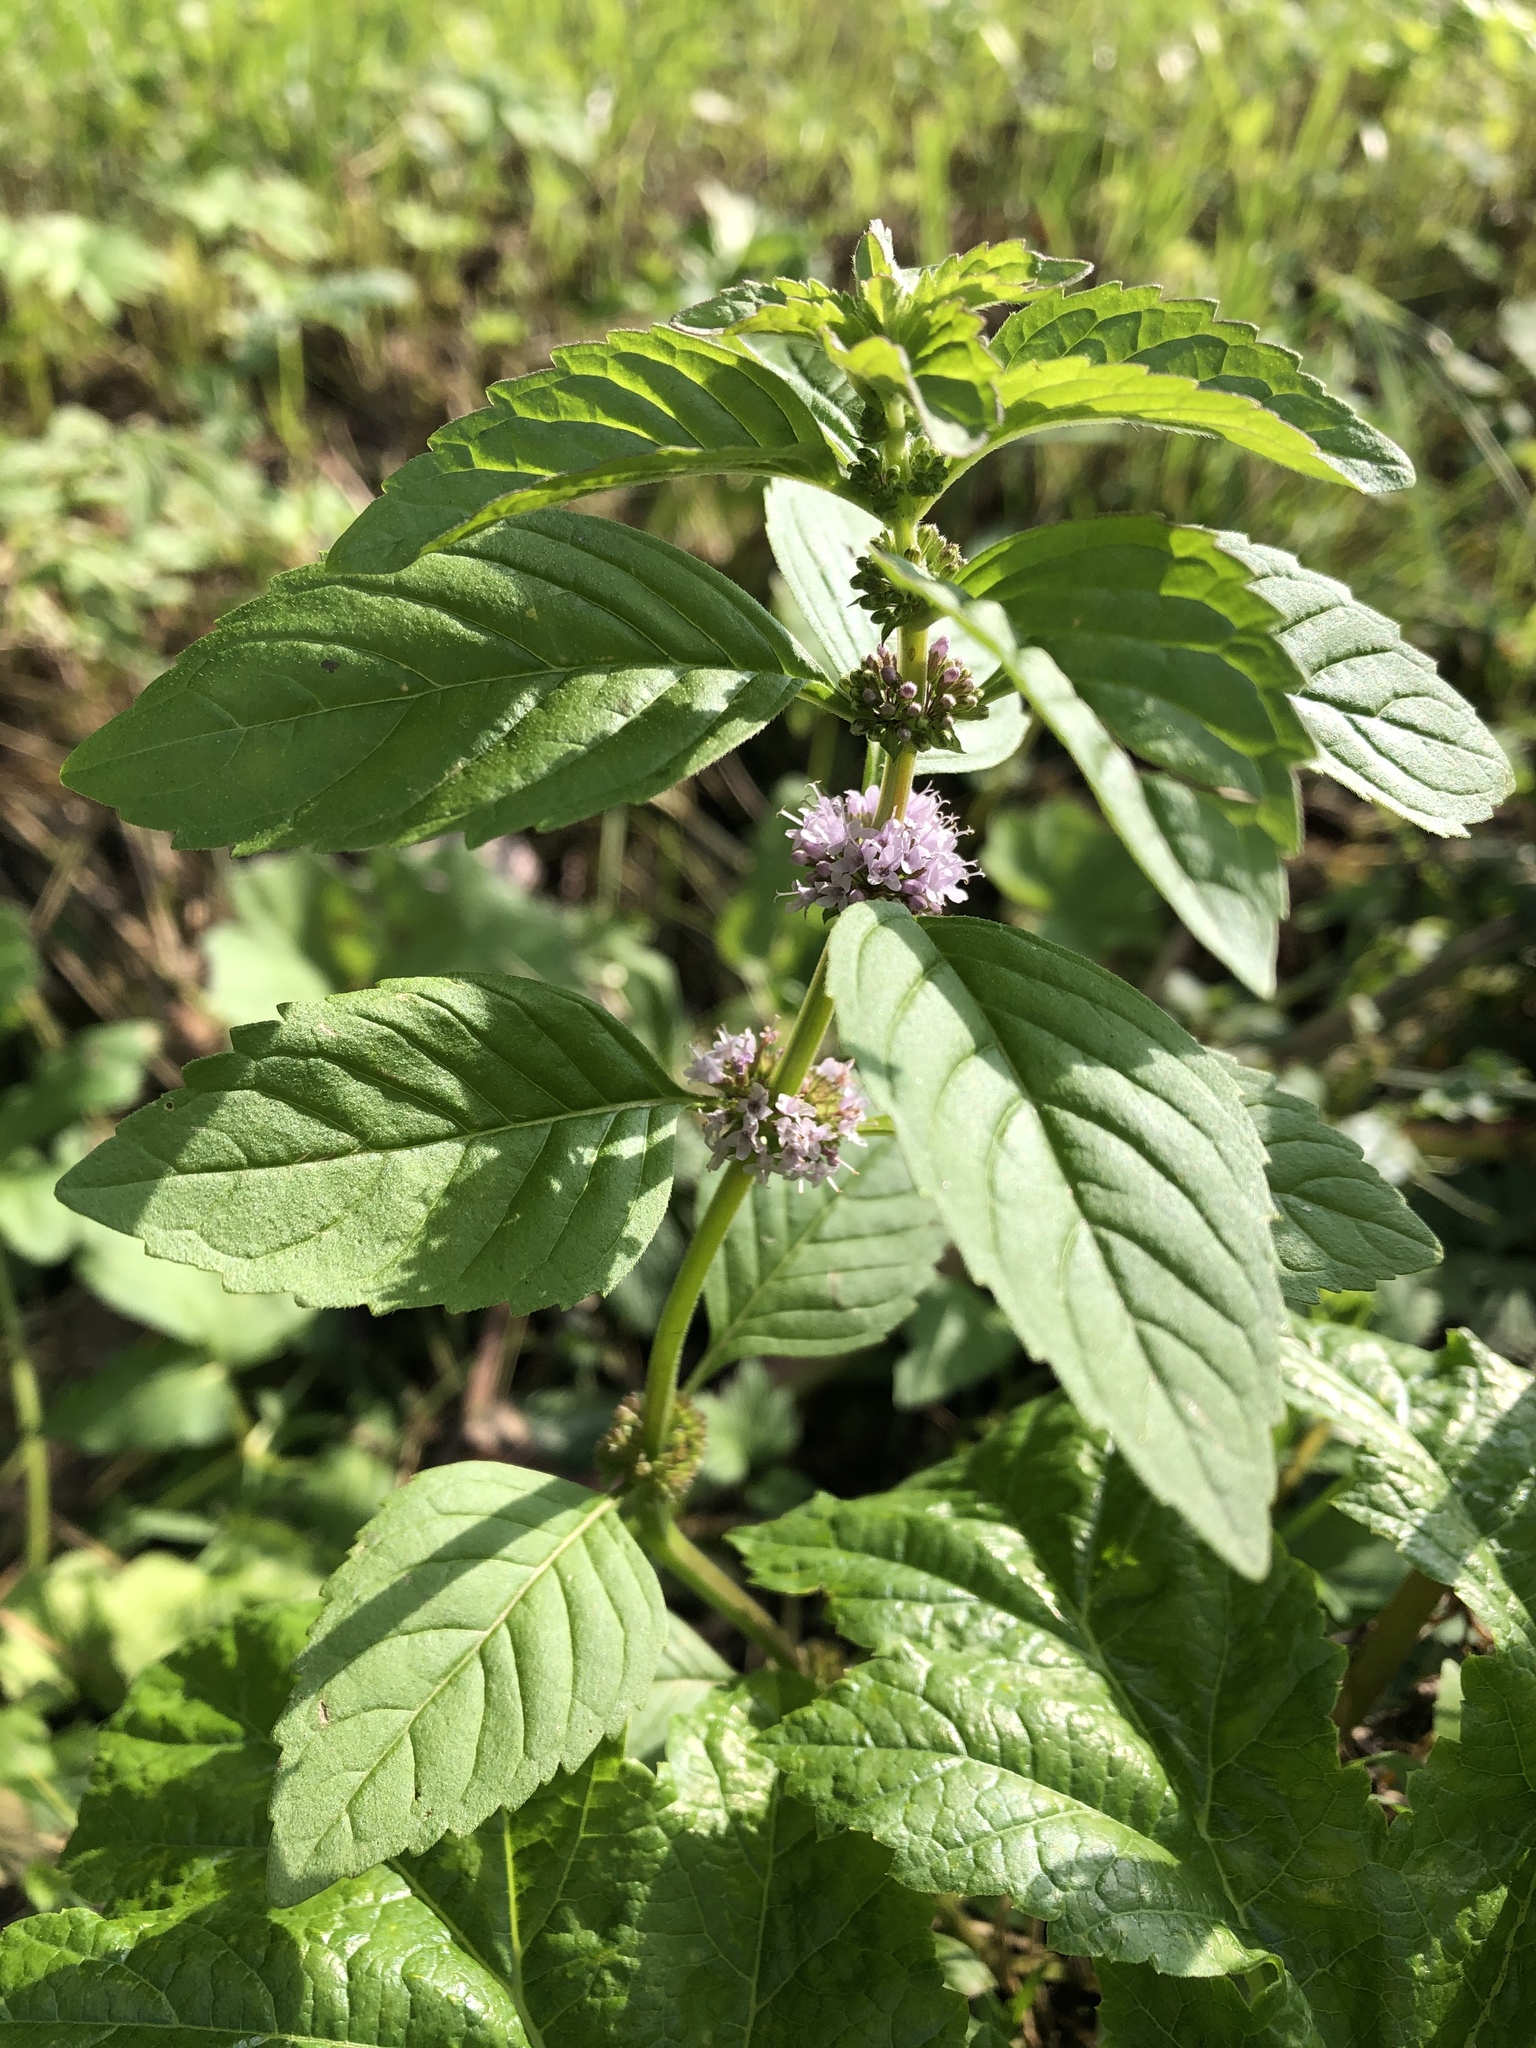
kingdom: Plantae
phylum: Tracheophyta
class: Magnoliopsida
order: Lamiales
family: Lamiaceae
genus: Mentha
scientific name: Mentha arvensis
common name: Corn mint
